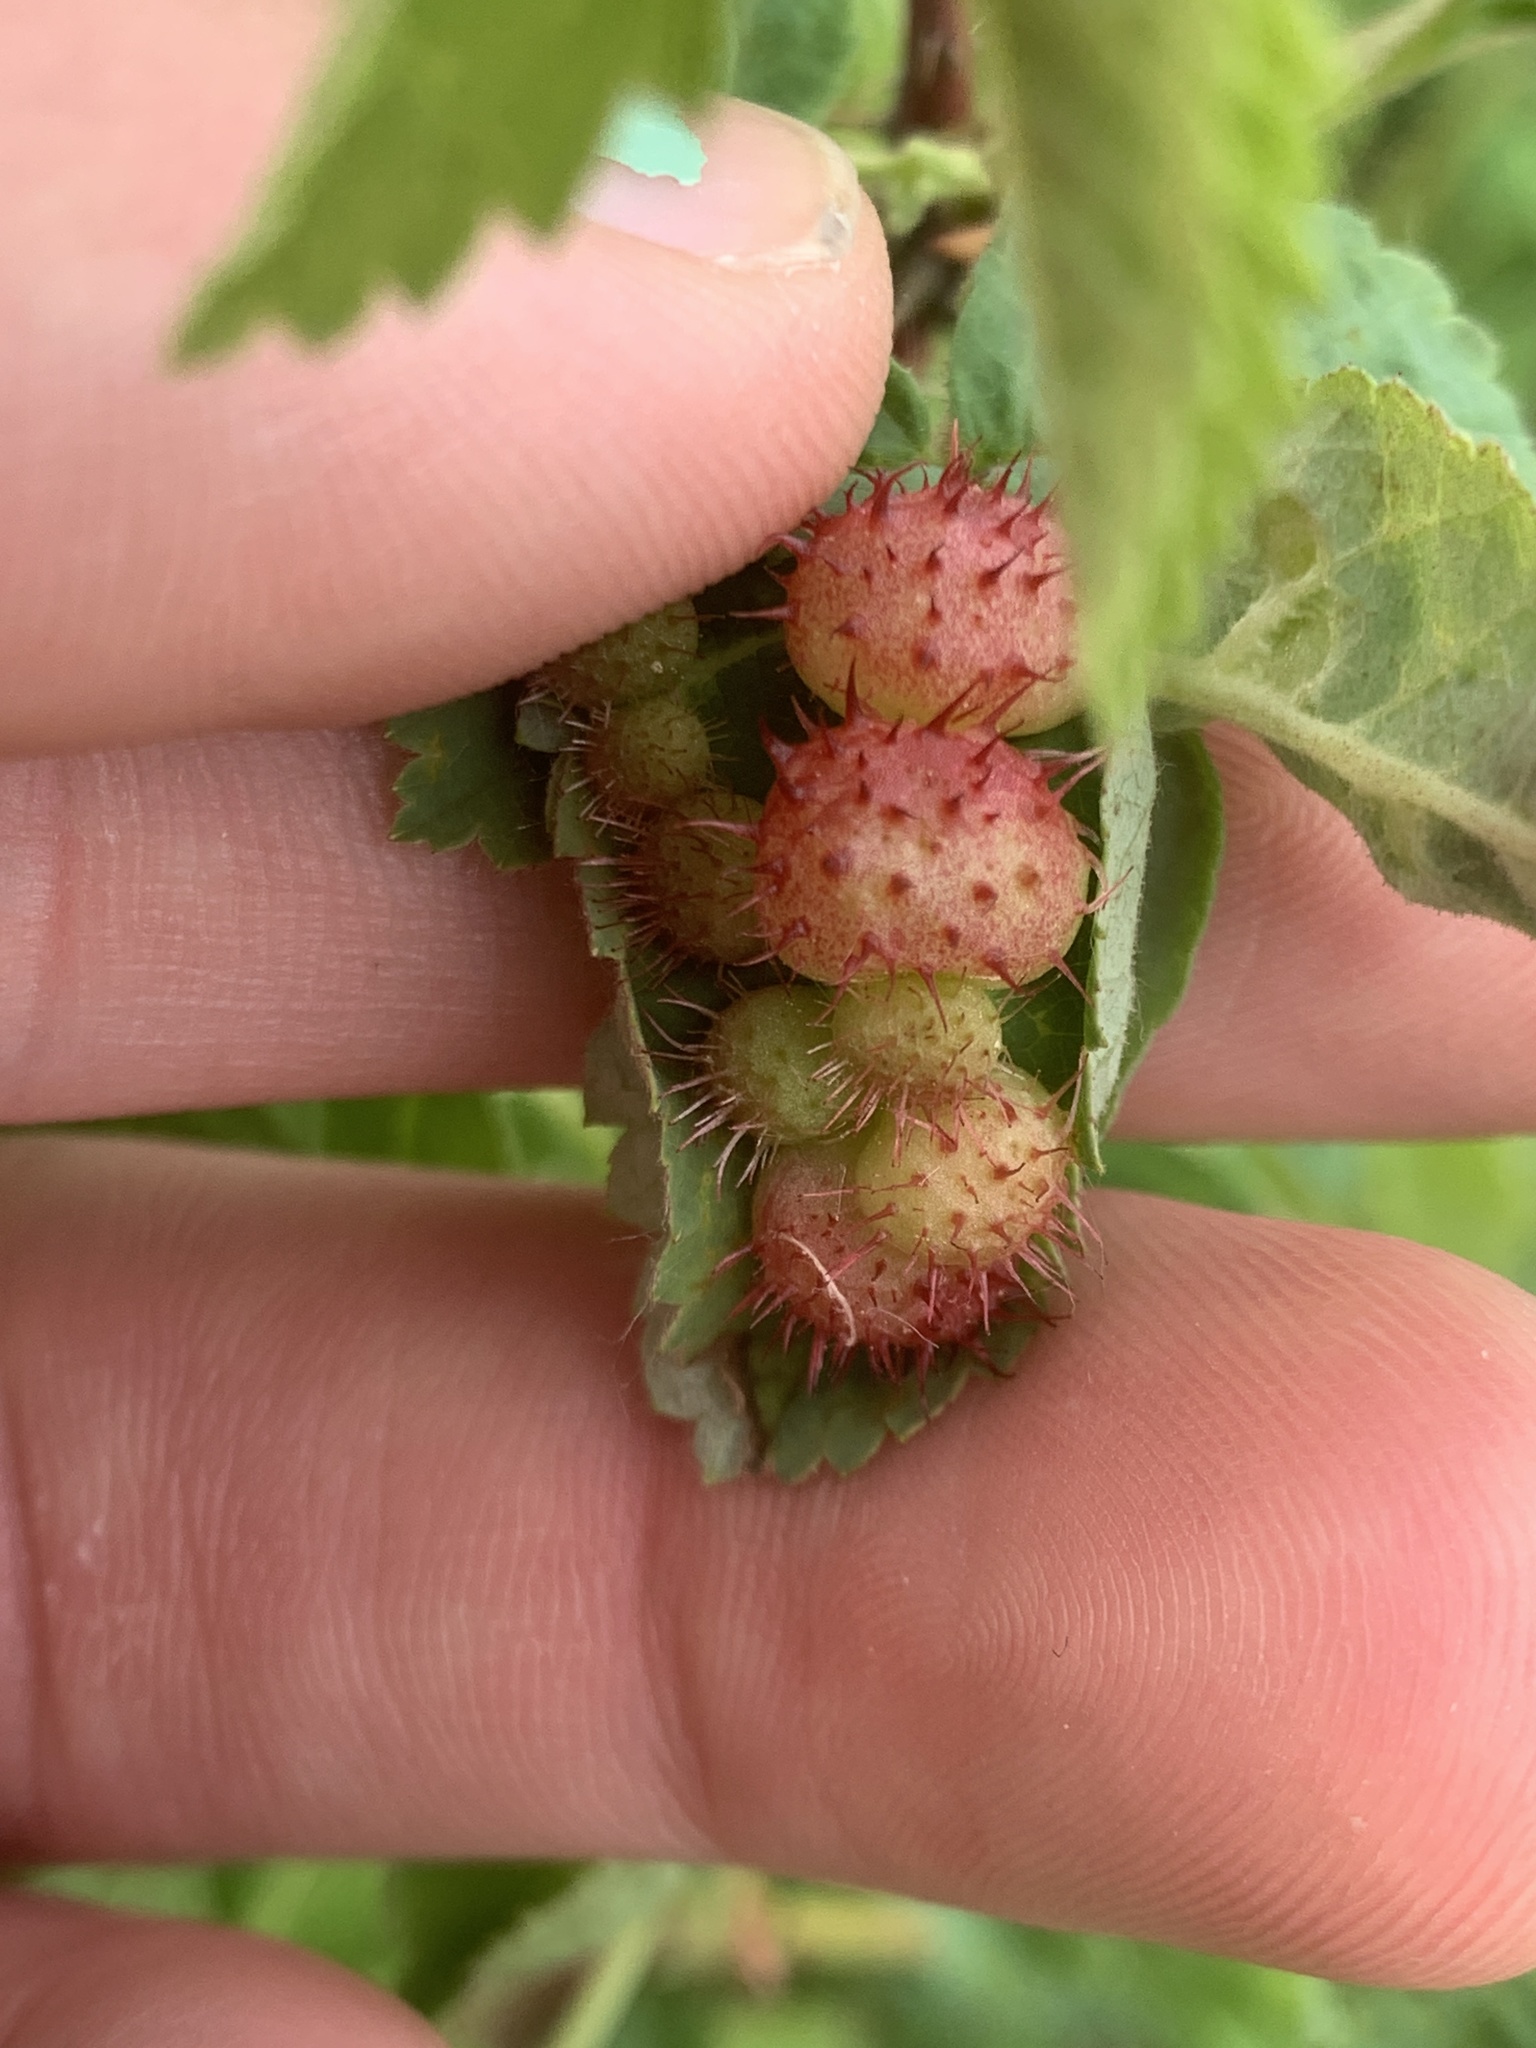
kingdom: Animalia
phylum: Arthropoda
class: Insecta
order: Hymenoptera
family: Cynipidae
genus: Diplolepis
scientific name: Diplolepis polita
